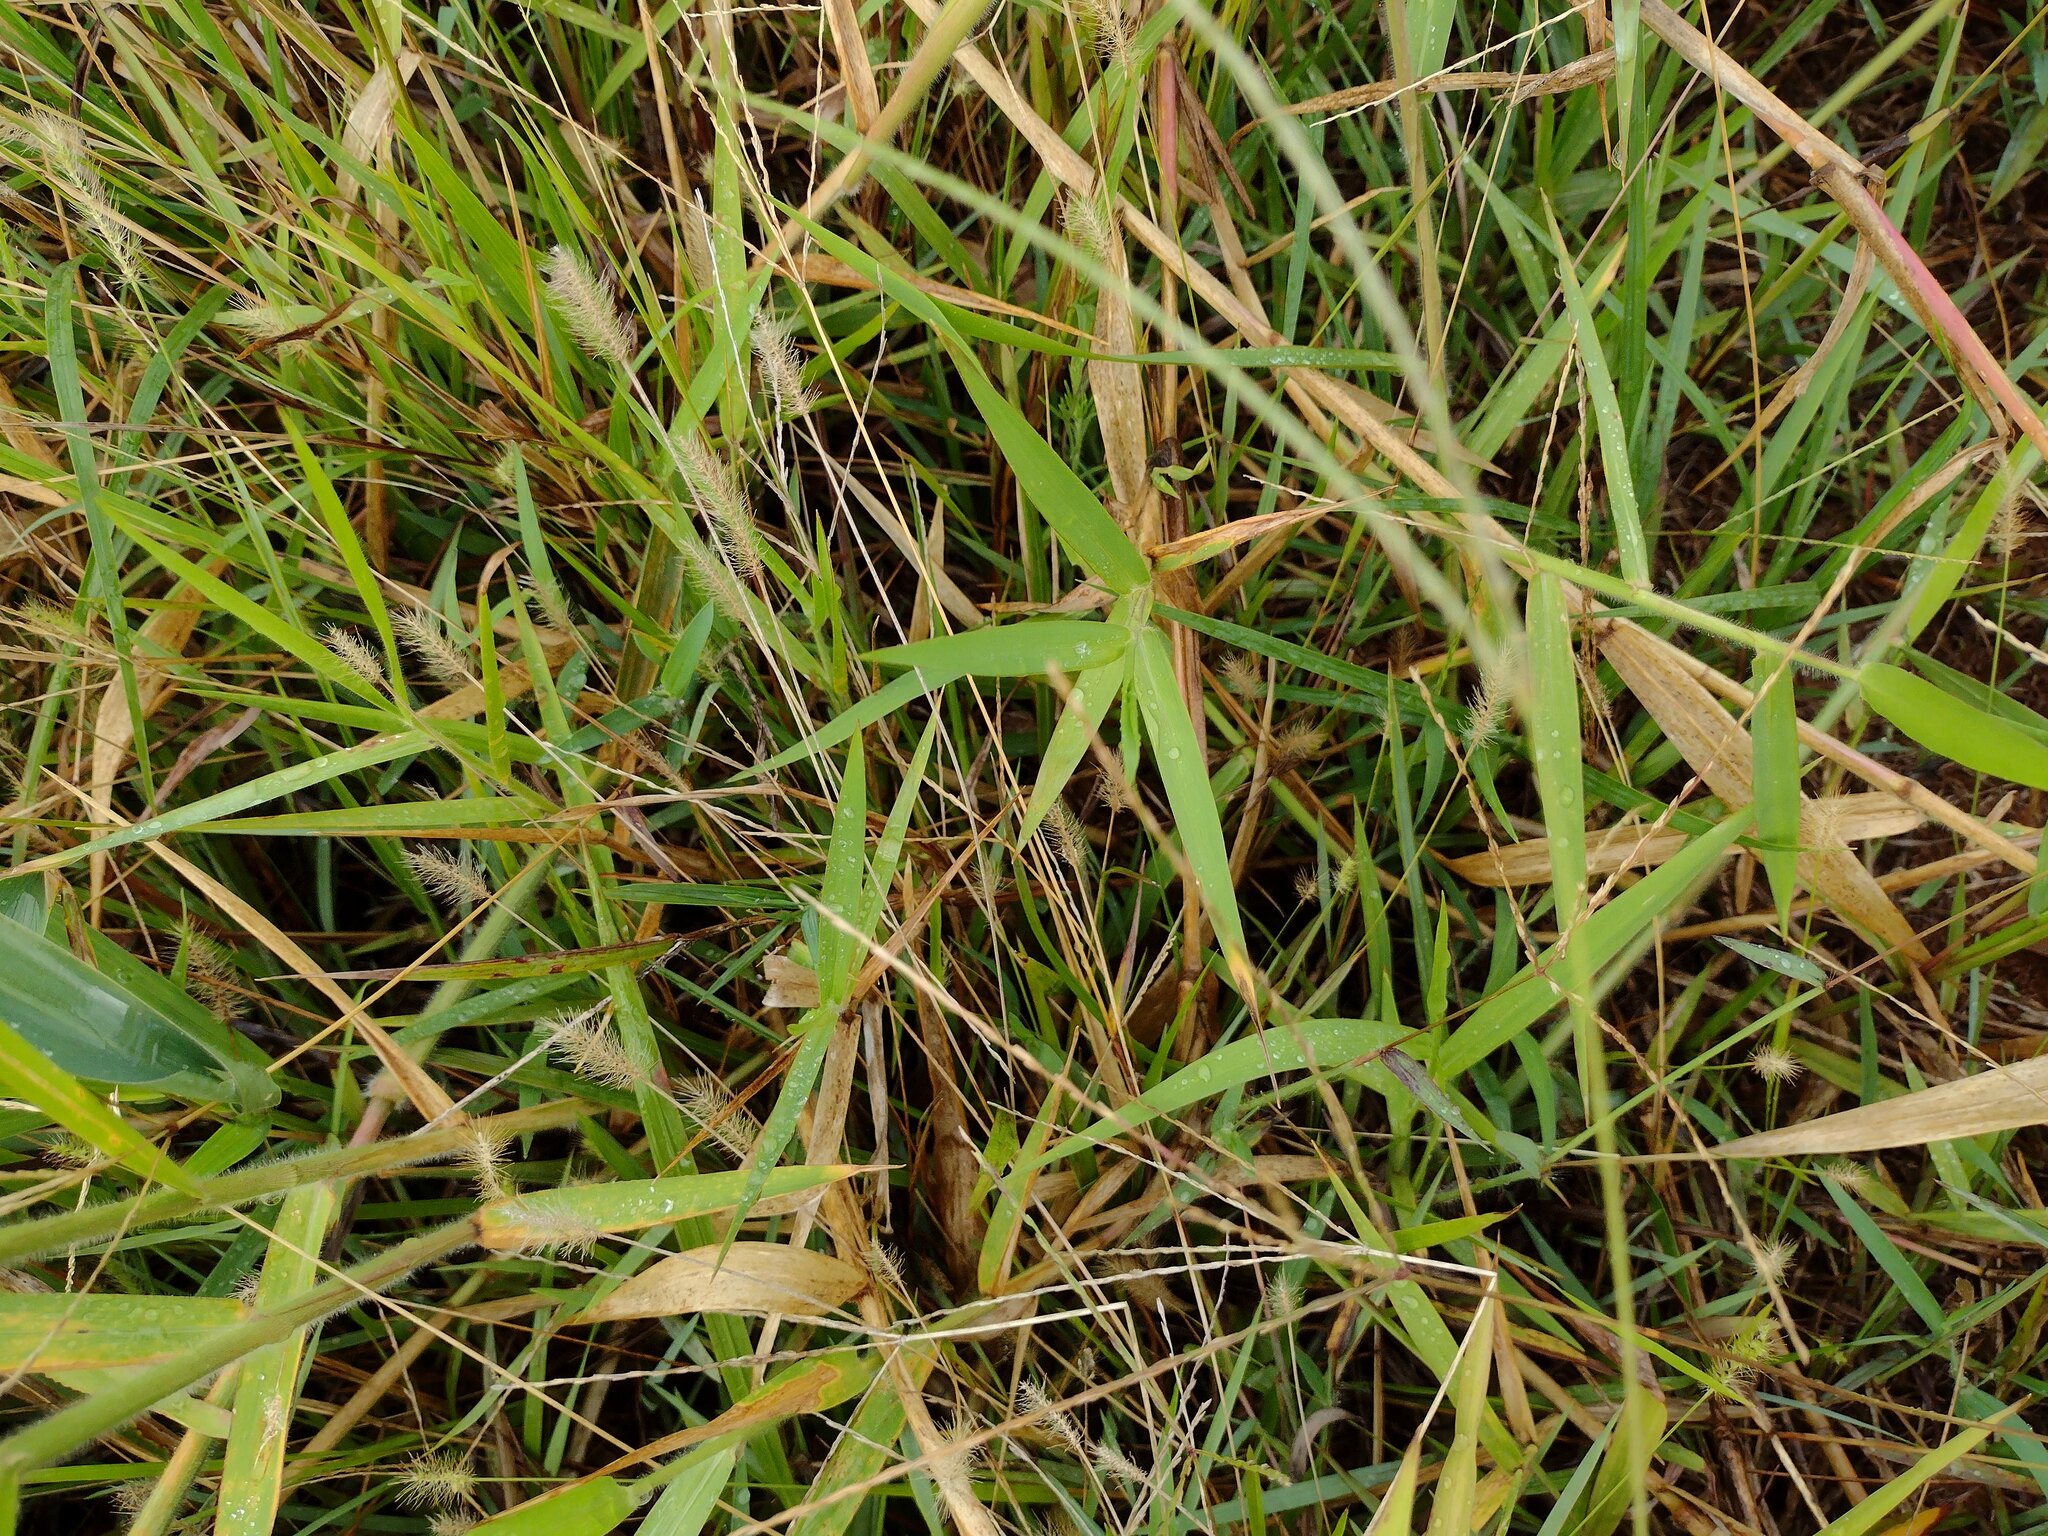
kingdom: Plantae
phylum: Tracheophyta
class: Liliopsida
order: Poales
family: Poaceae
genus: Setaria
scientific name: Setaria parviflora
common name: Knotroot bristle-grass
